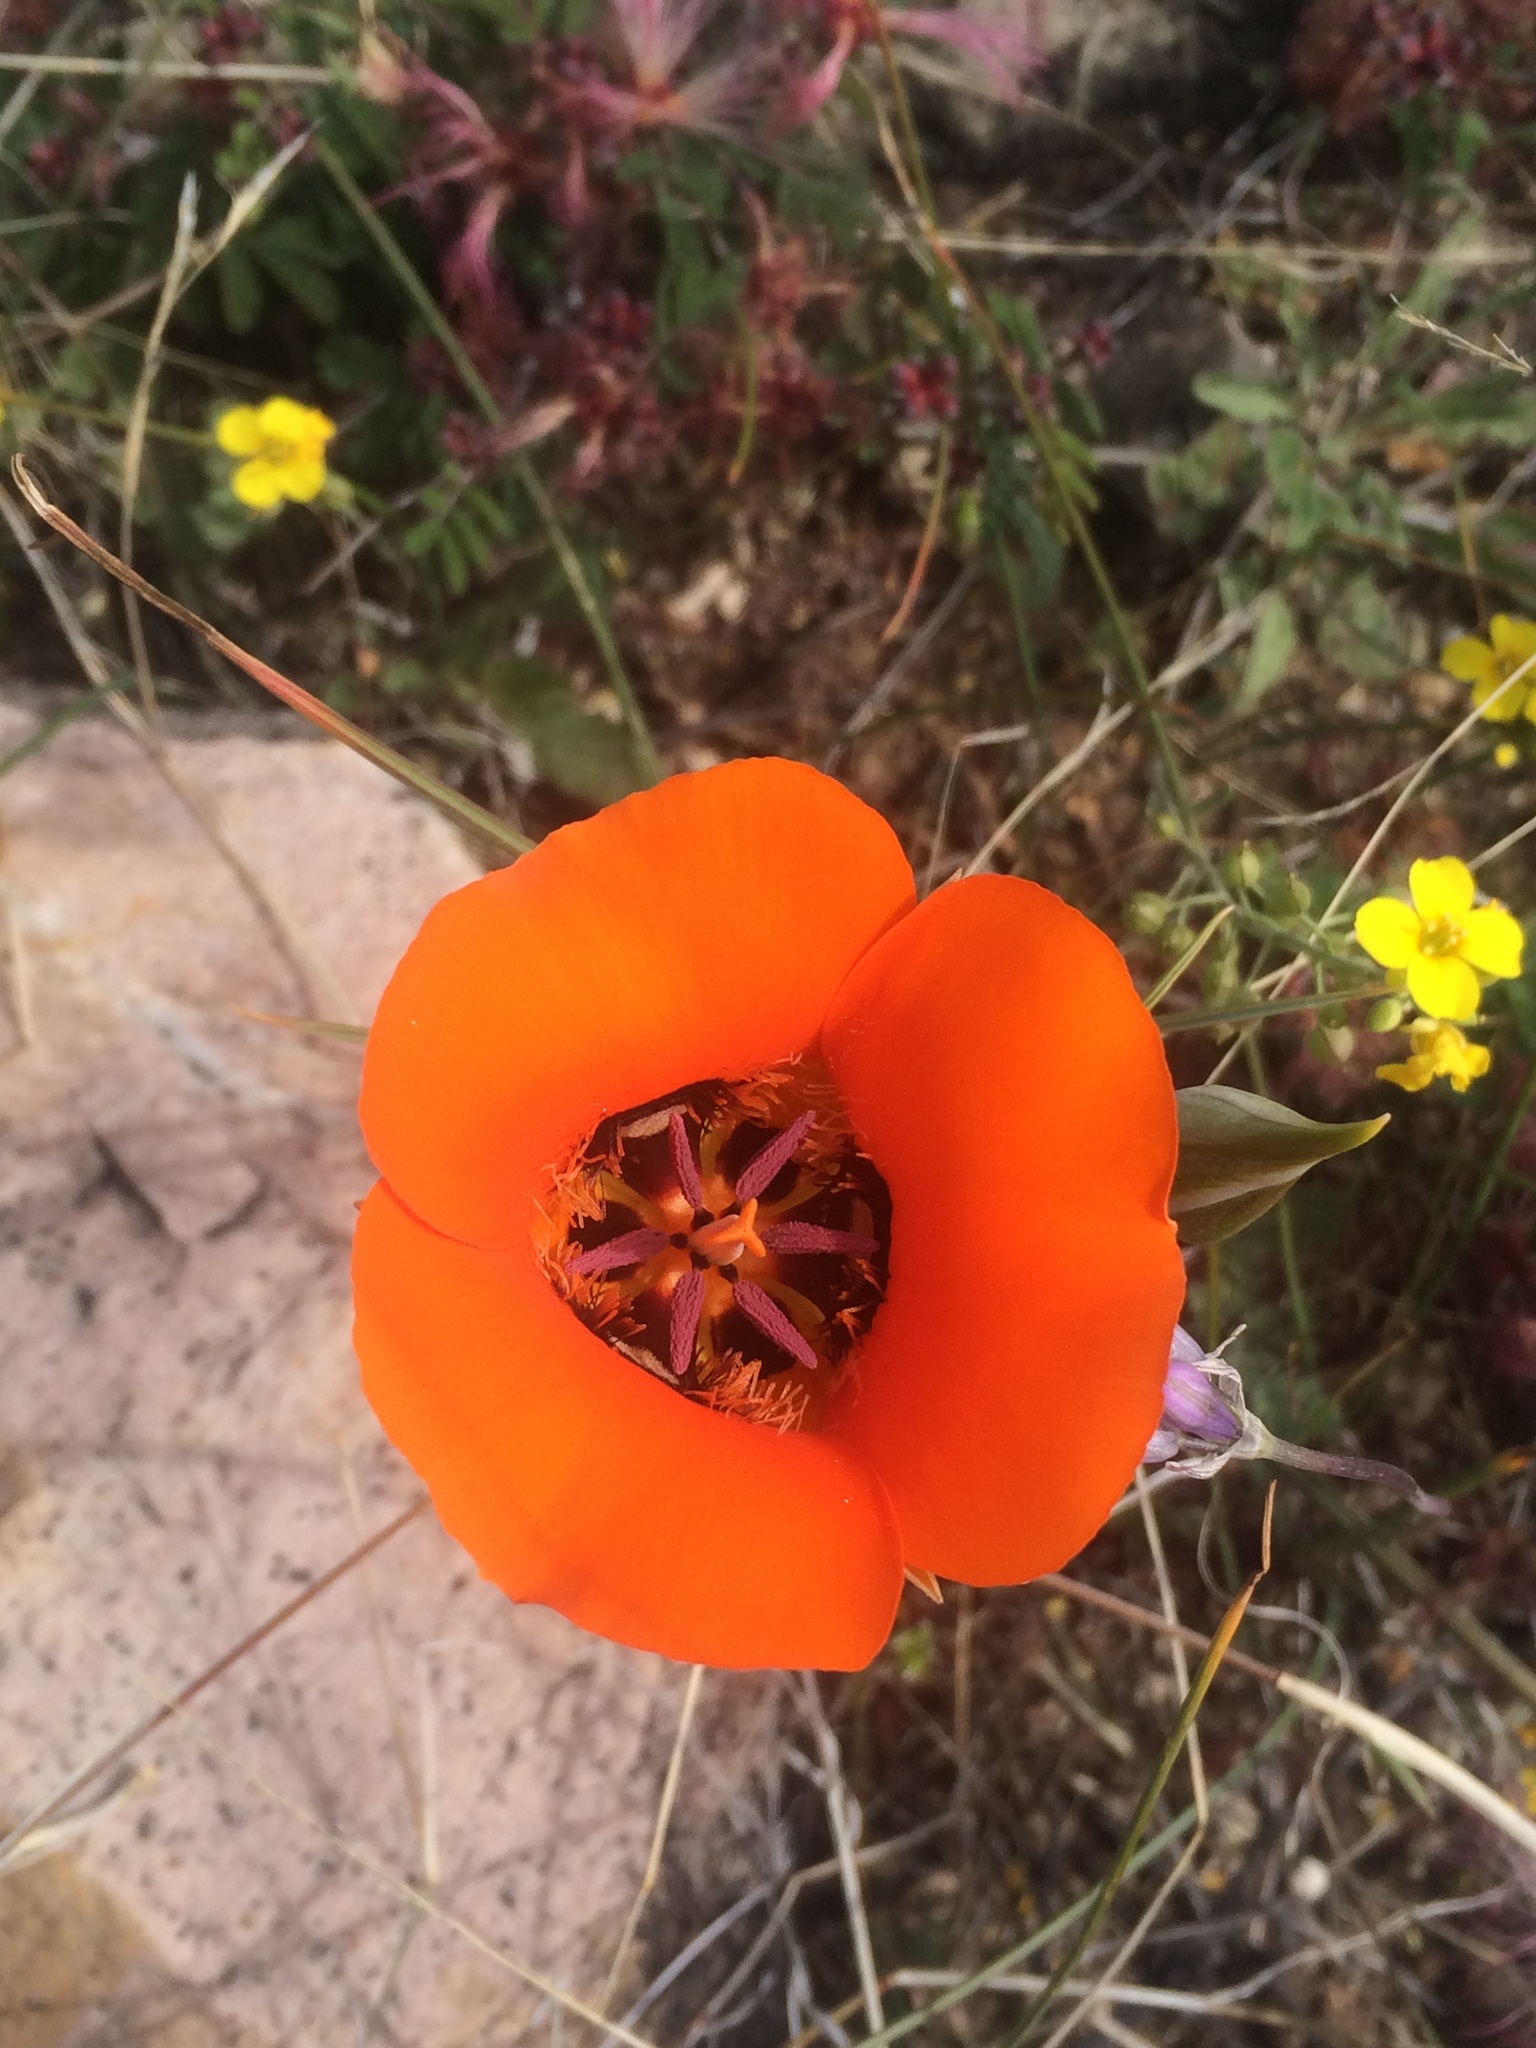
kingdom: Plantae
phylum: Tracheophyta
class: Liliopsida
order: Liliales
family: Liliaceae
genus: Calochortus
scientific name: Calochortus kennedyi
